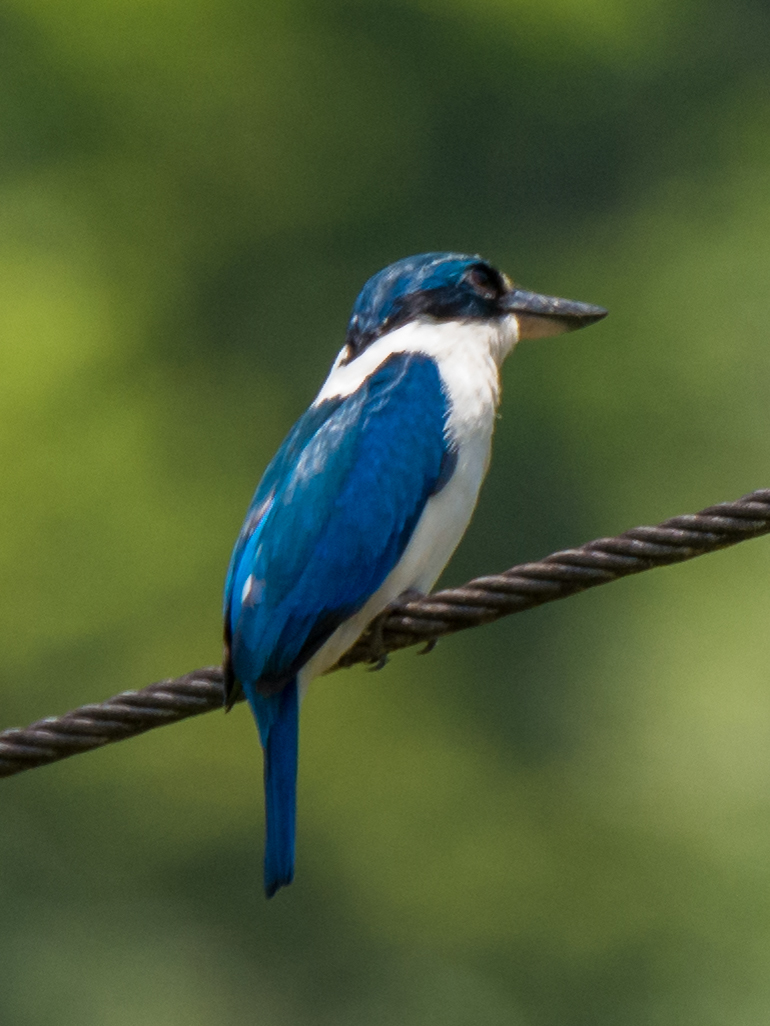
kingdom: Animalia
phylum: Chordata
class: Aves
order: Coraciiformes
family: Alcedinidae
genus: Todiramphus
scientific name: Todiramphus chloris
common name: Collared kingfisher
